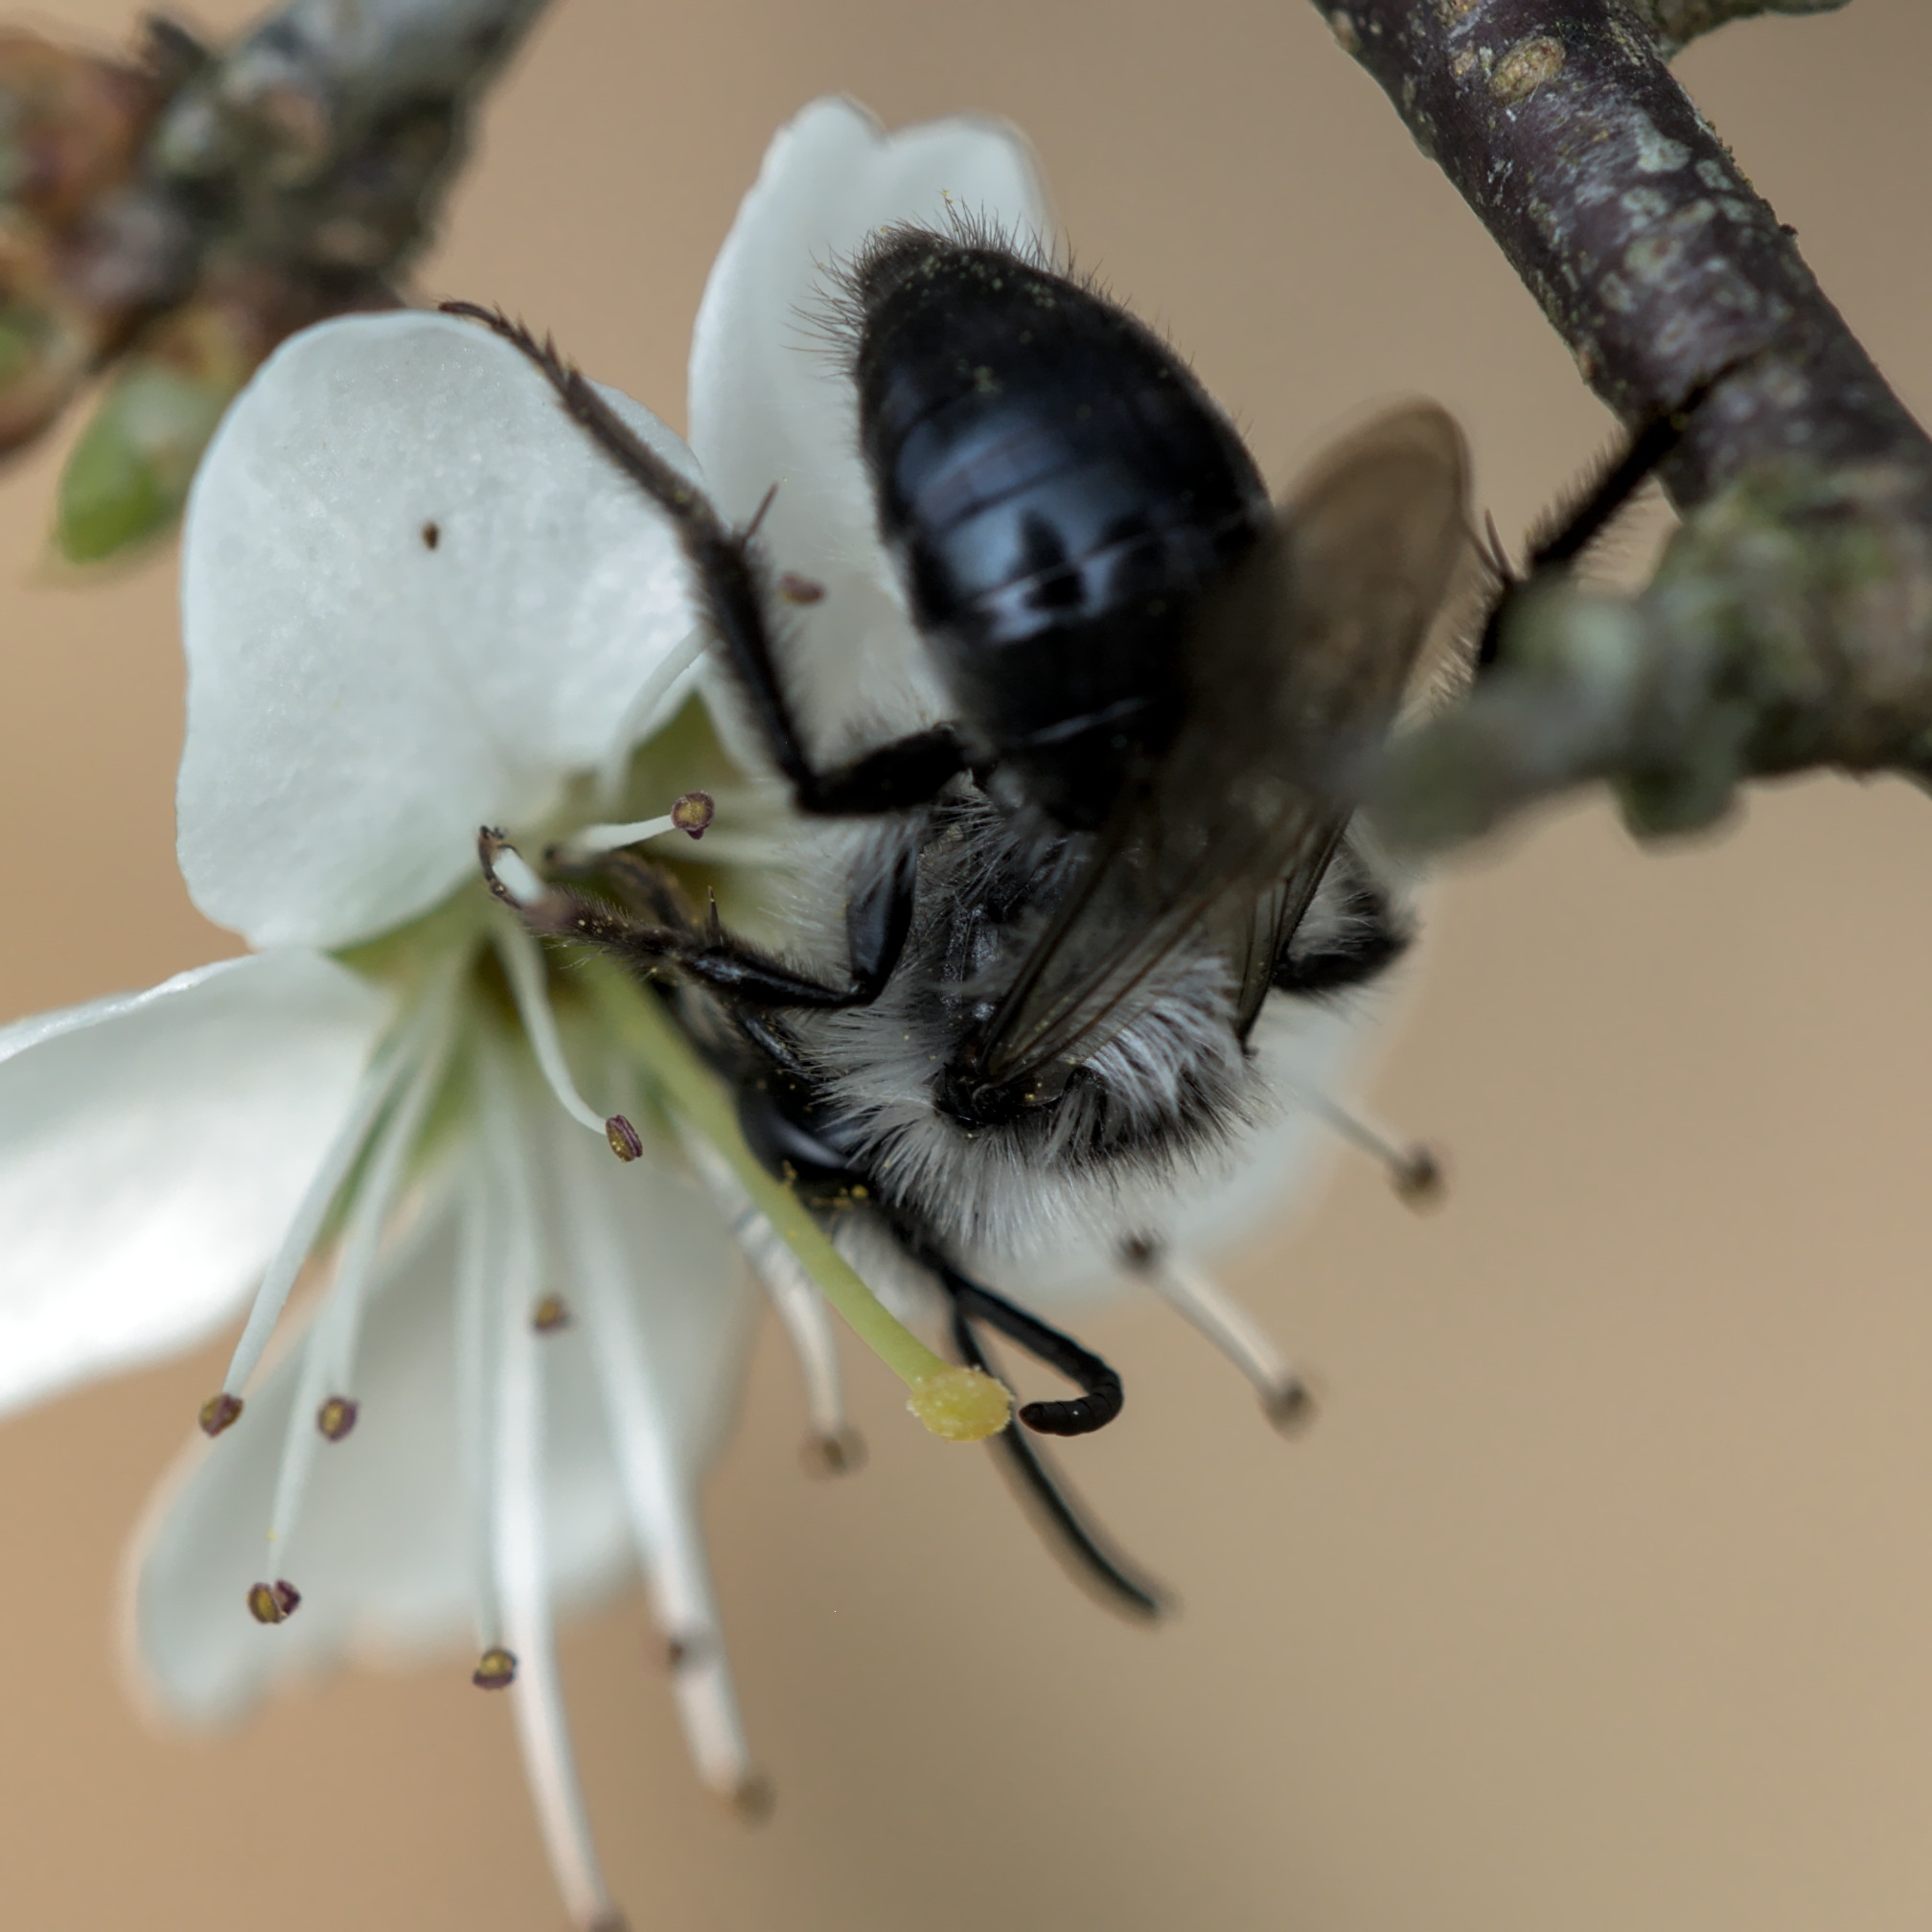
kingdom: Animalia
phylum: Arthropoda
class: Insecta
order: Hymenoptera
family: Andrenidae
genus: Andrena
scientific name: Andrena cineraria
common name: Ashy mining bee
